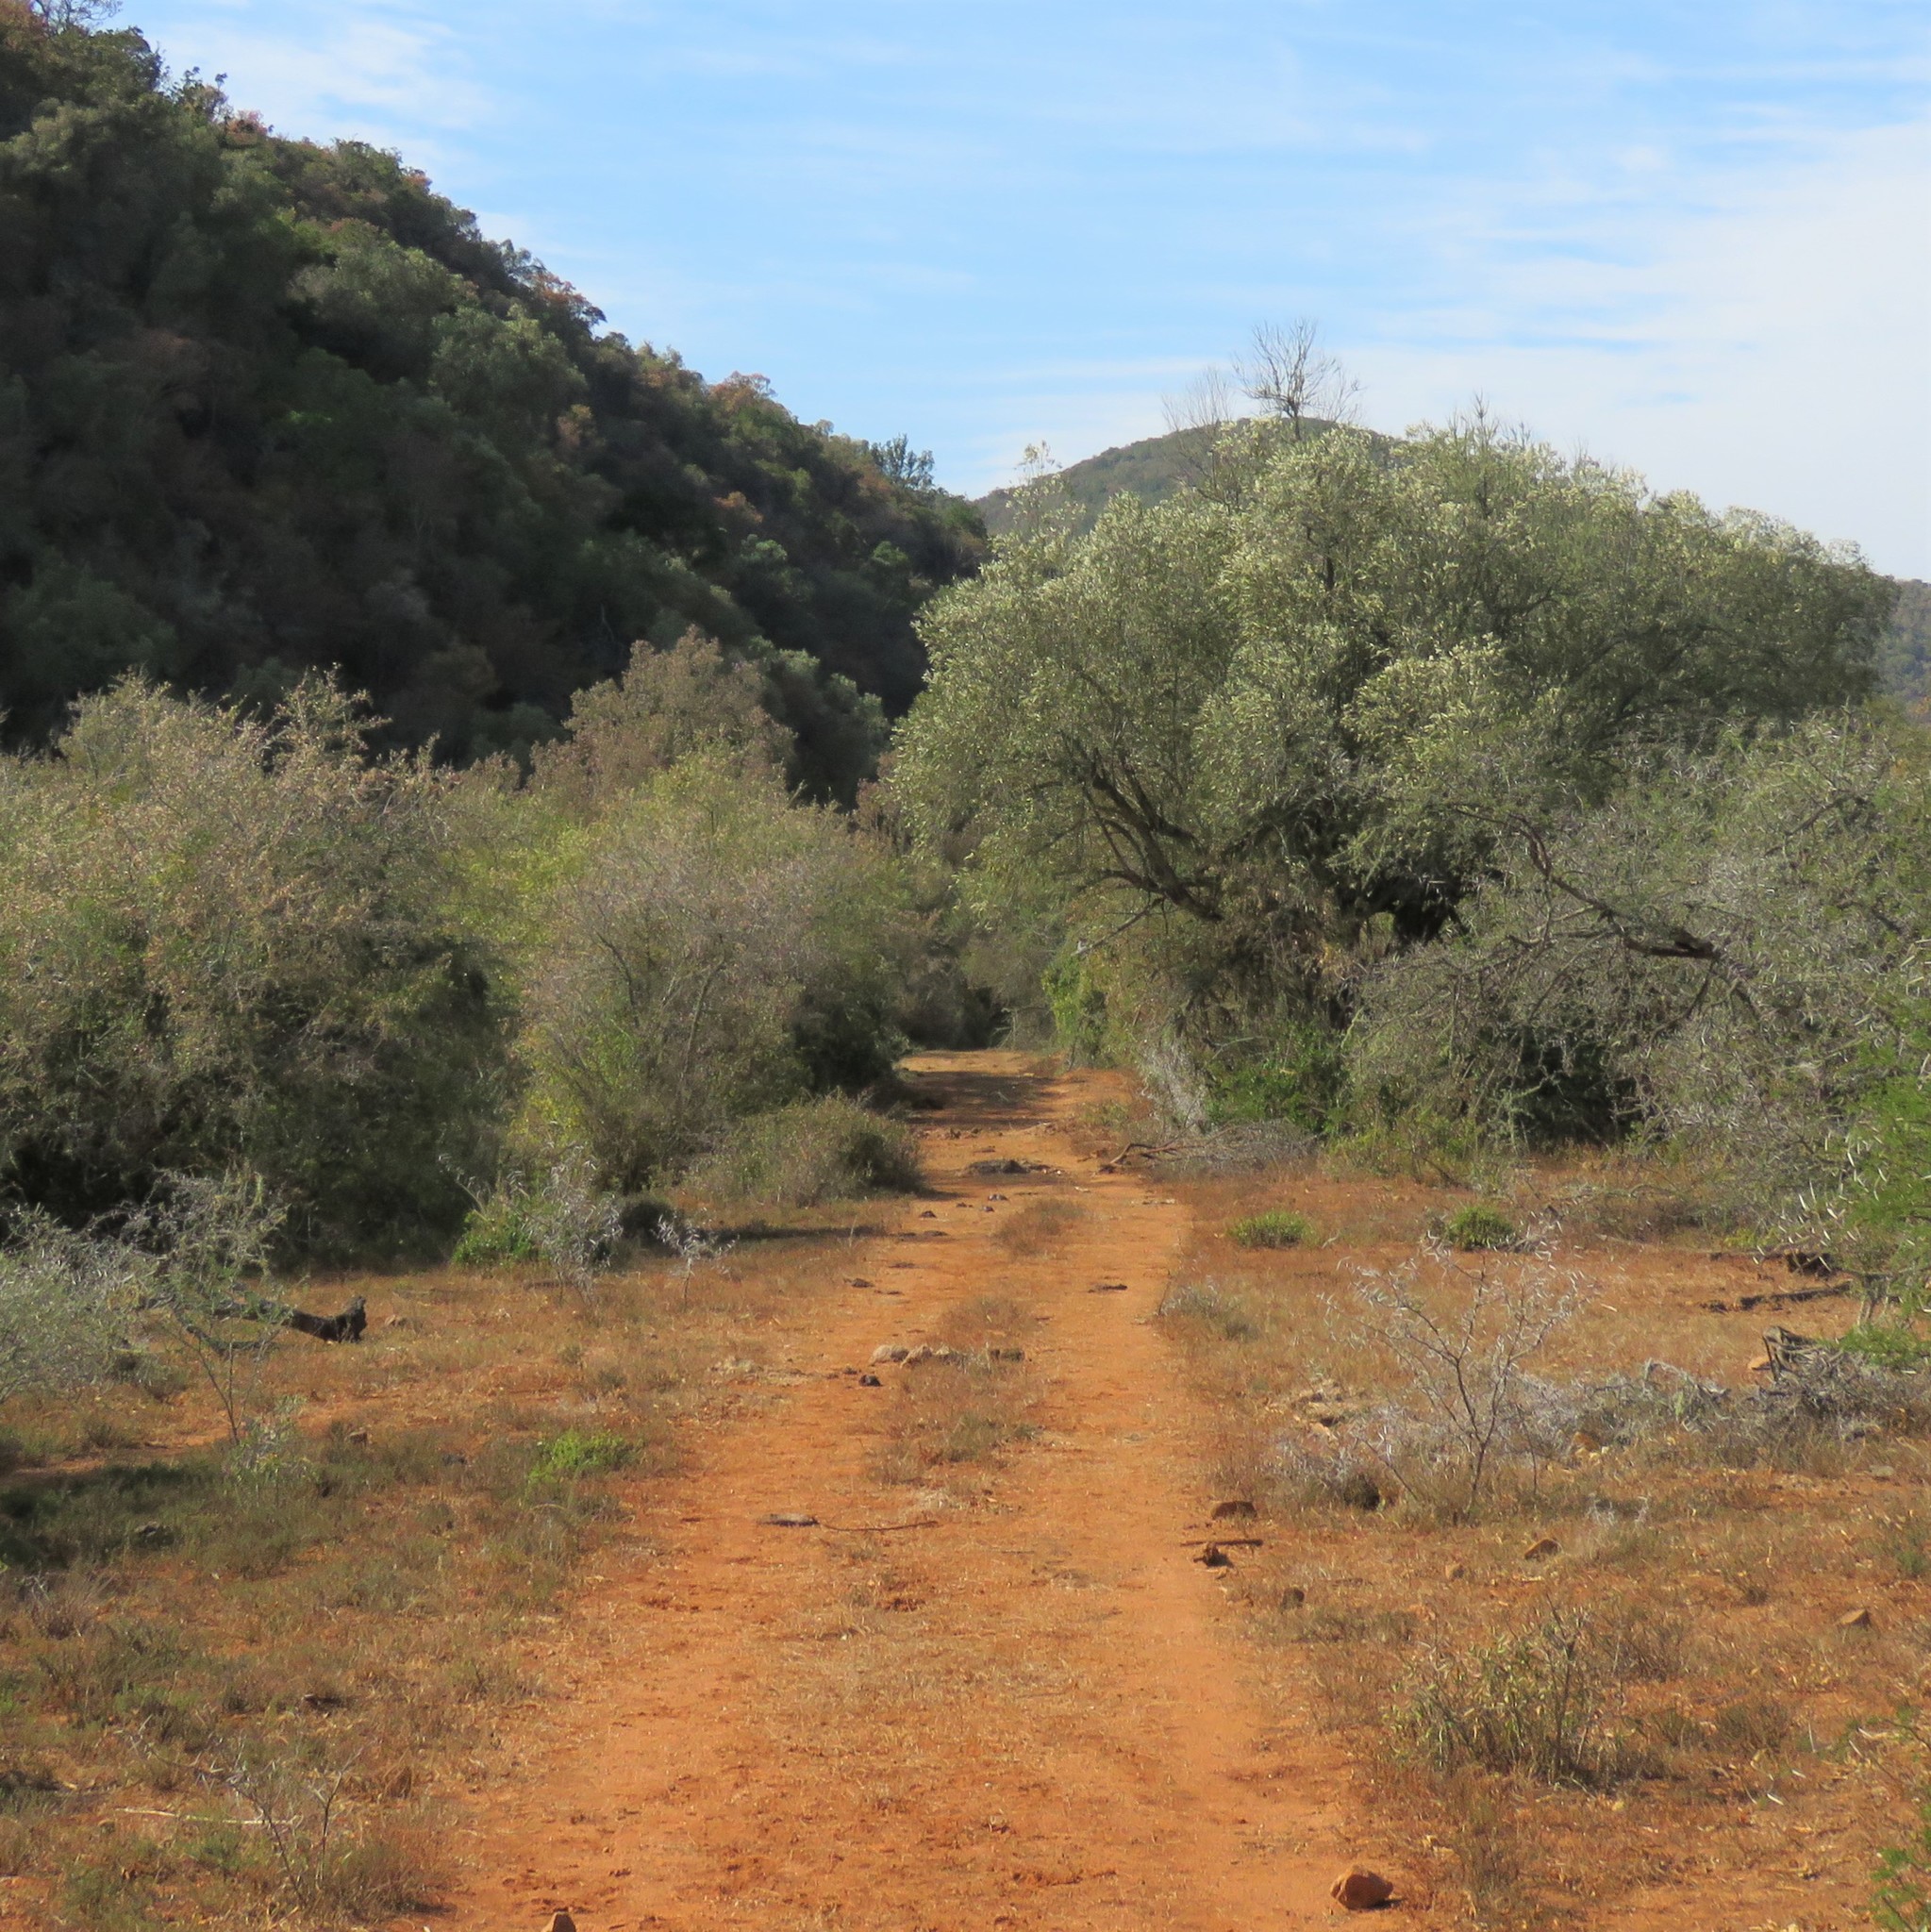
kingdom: Plantae
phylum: Tracheophyta
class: Magnoliopsida
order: Lamiales
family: Oleaceae
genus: Olea
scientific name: Olea europaea
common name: Olive
